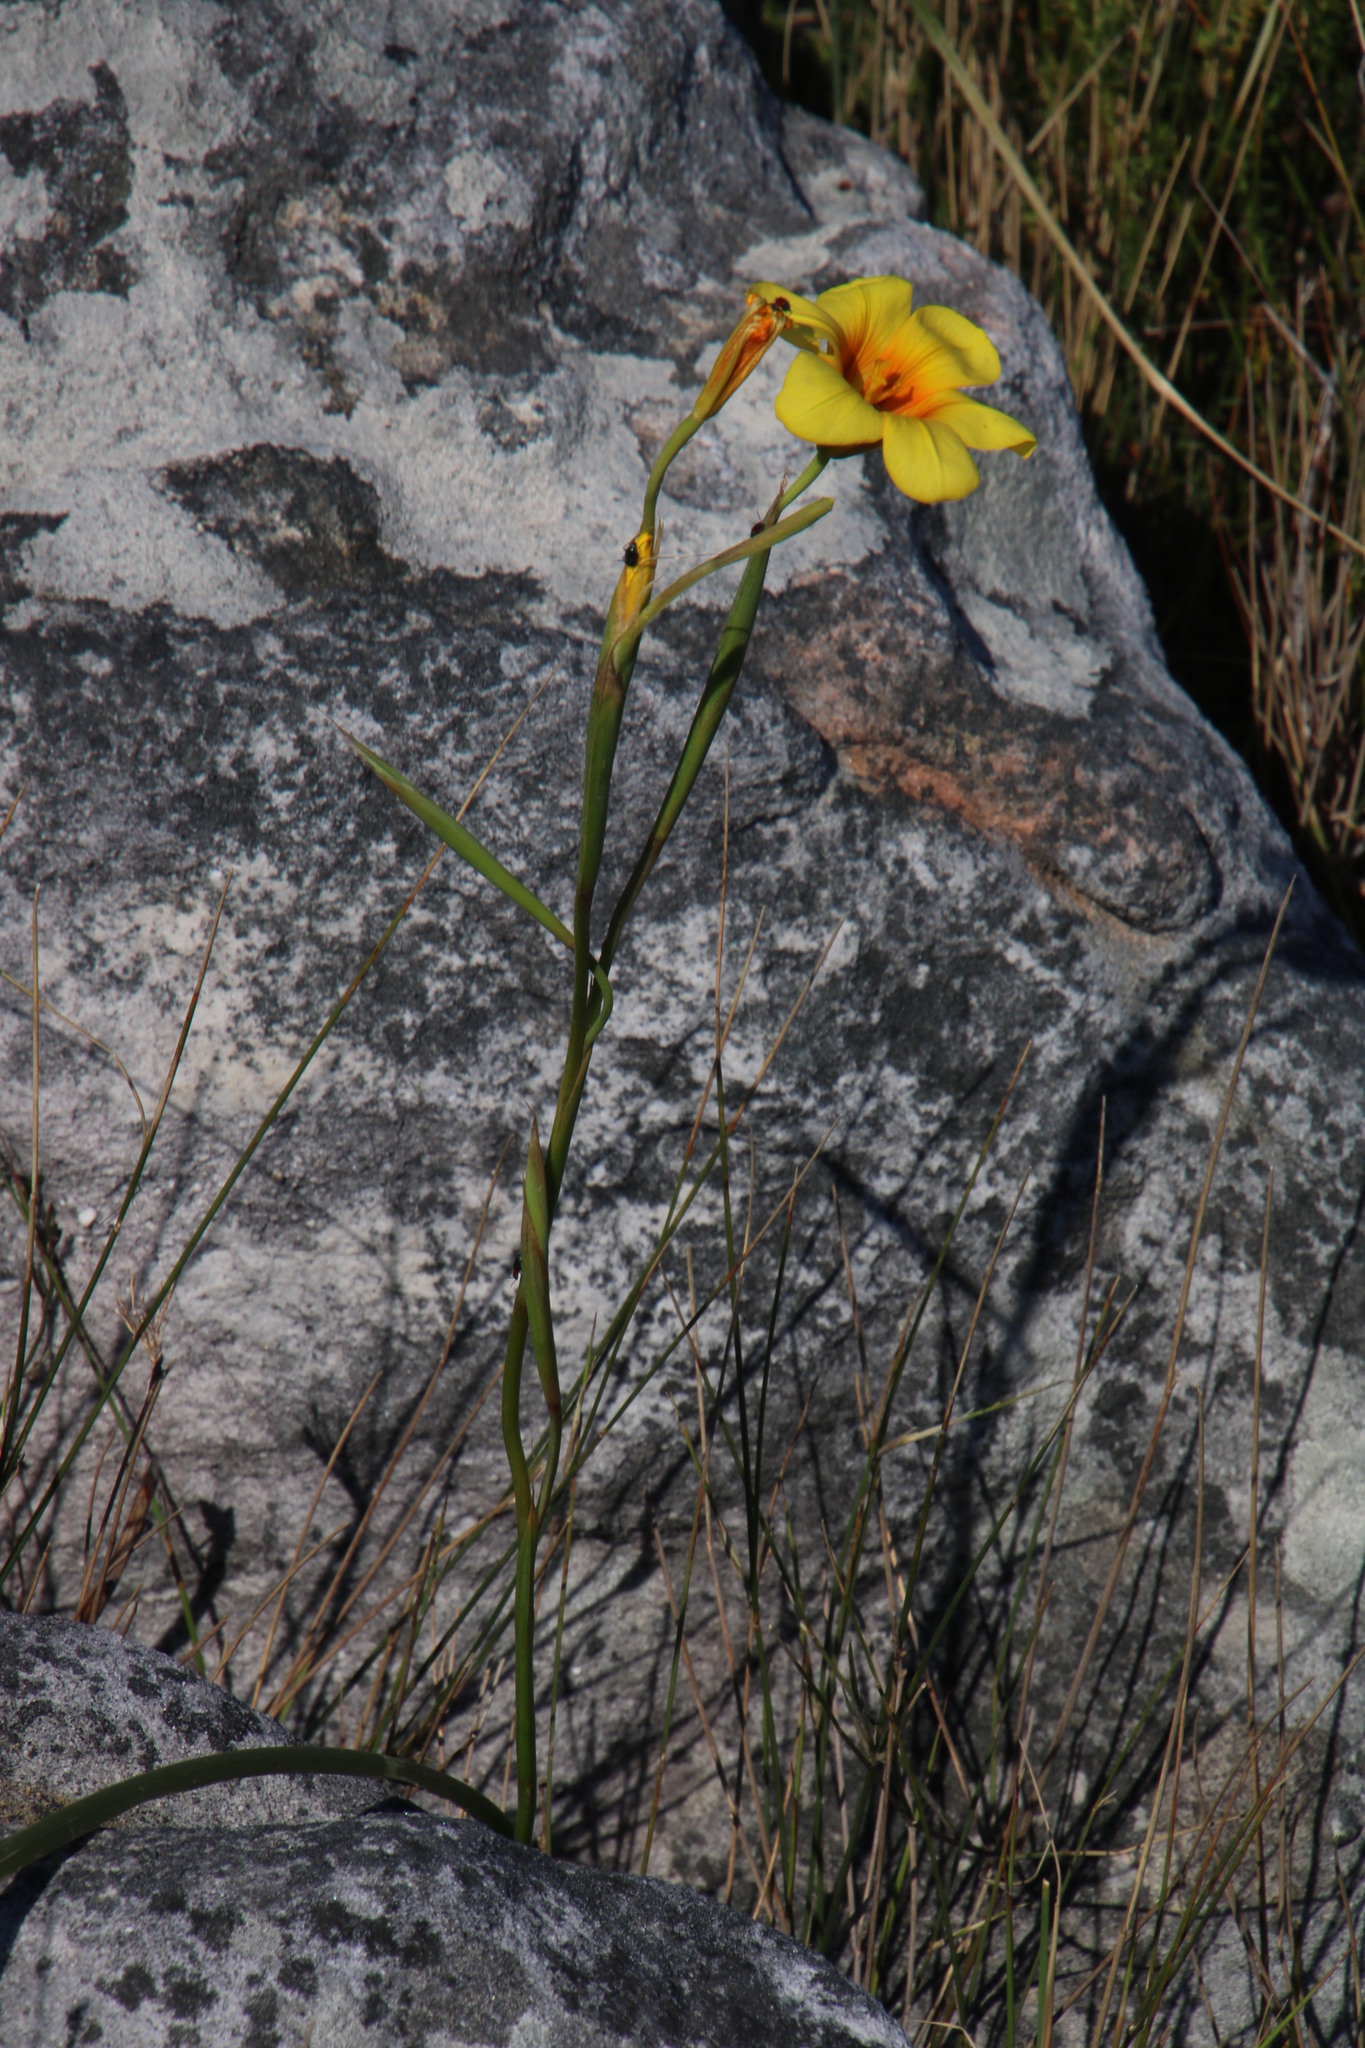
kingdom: Plantae
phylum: Tracheophyta
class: Liliopsida
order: Asparagales
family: Iridaceae
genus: Moraea
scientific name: Moraea ochroleuca
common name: Red tulp
